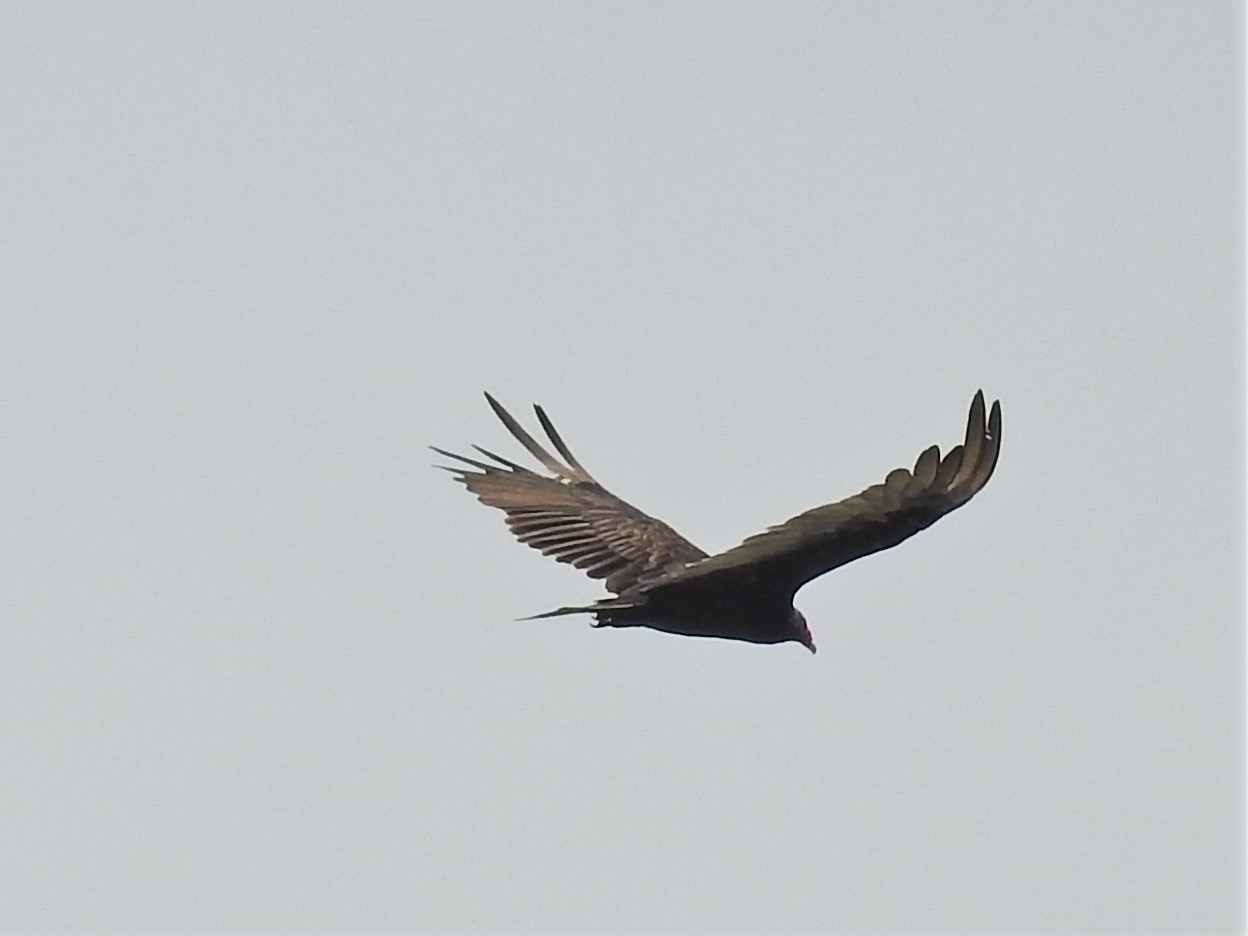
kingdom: Animalia
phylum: Chordata
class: Aves
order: Accipitriformes
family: Cathartidae
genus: Cathartes
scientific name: Cathartes aura
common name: Turkey vulture
